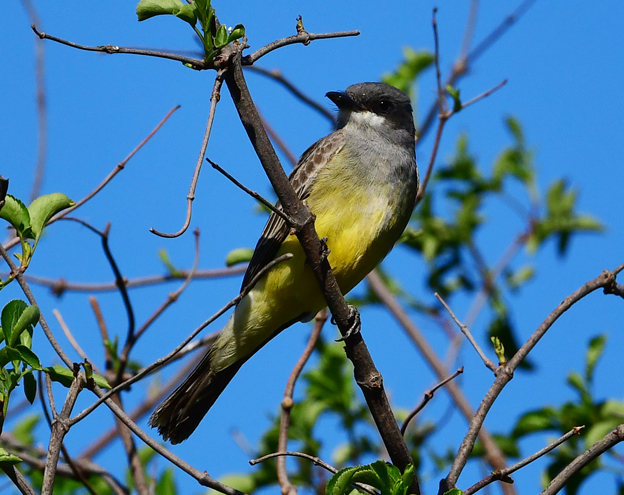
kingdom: Animalia
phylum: Chordata
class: Aves
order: Passeriformes
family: Tyrannidae
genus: Tyrannus
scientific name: Tyrannus vociferans
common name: Cassin's kingbird
